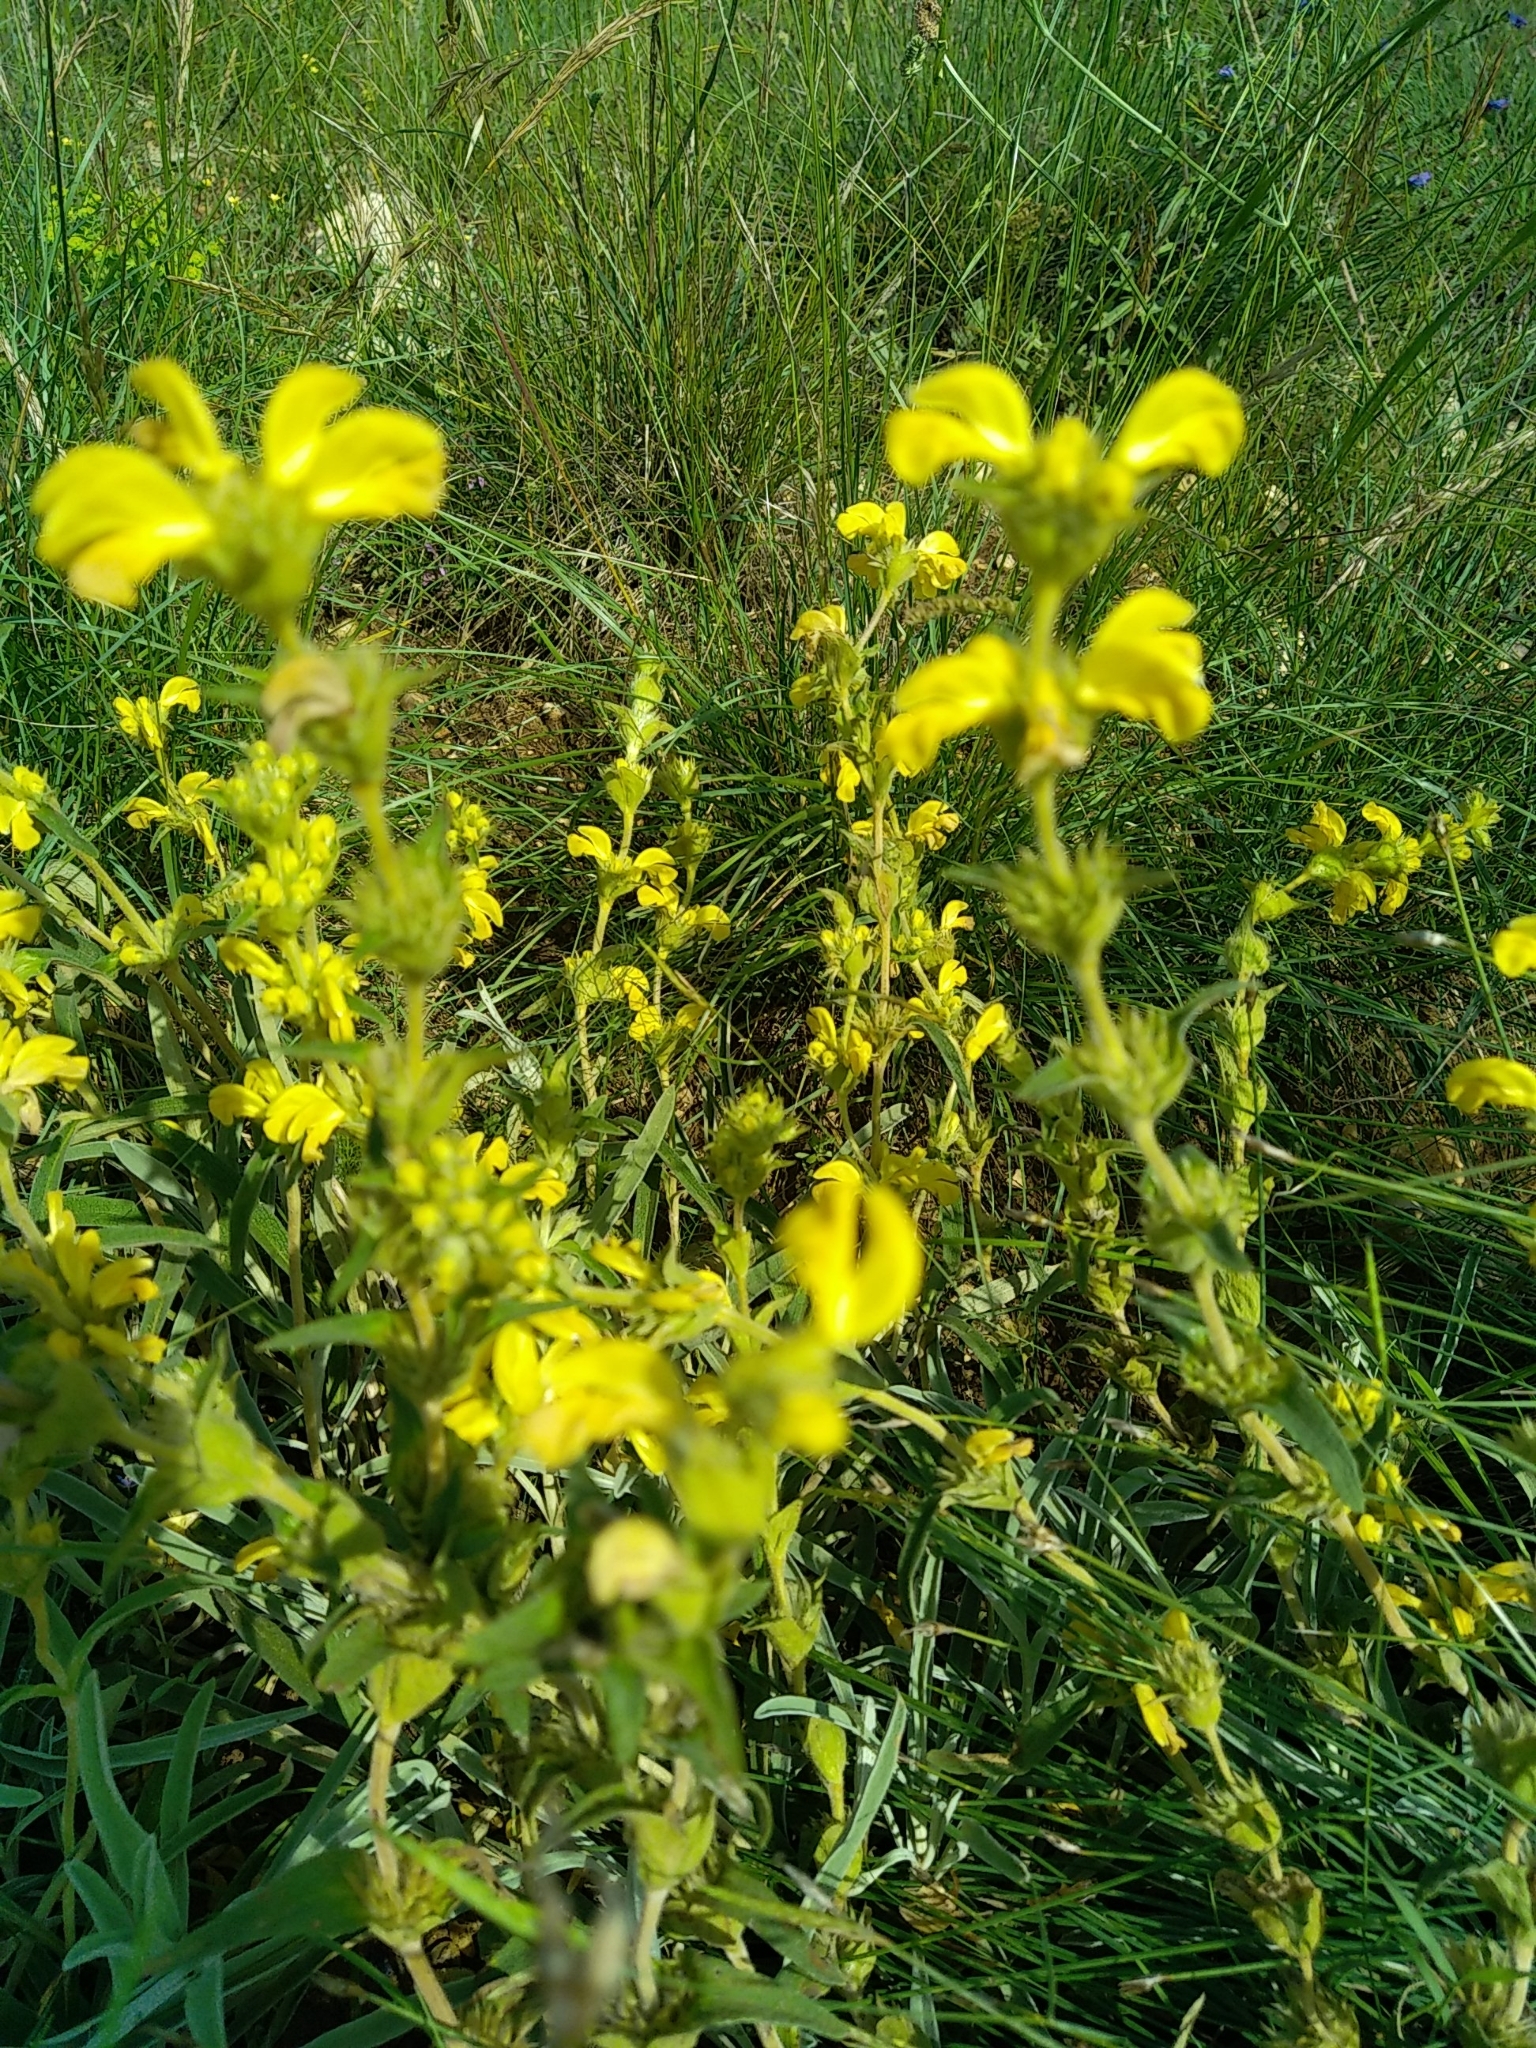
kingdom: Plantae
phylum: Tracheophyta
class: Magnoliopsida
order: Lamiales
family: Lamiaceae
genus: Phlomis
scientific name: Phlomis lychnitis
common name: Lampwickplant
